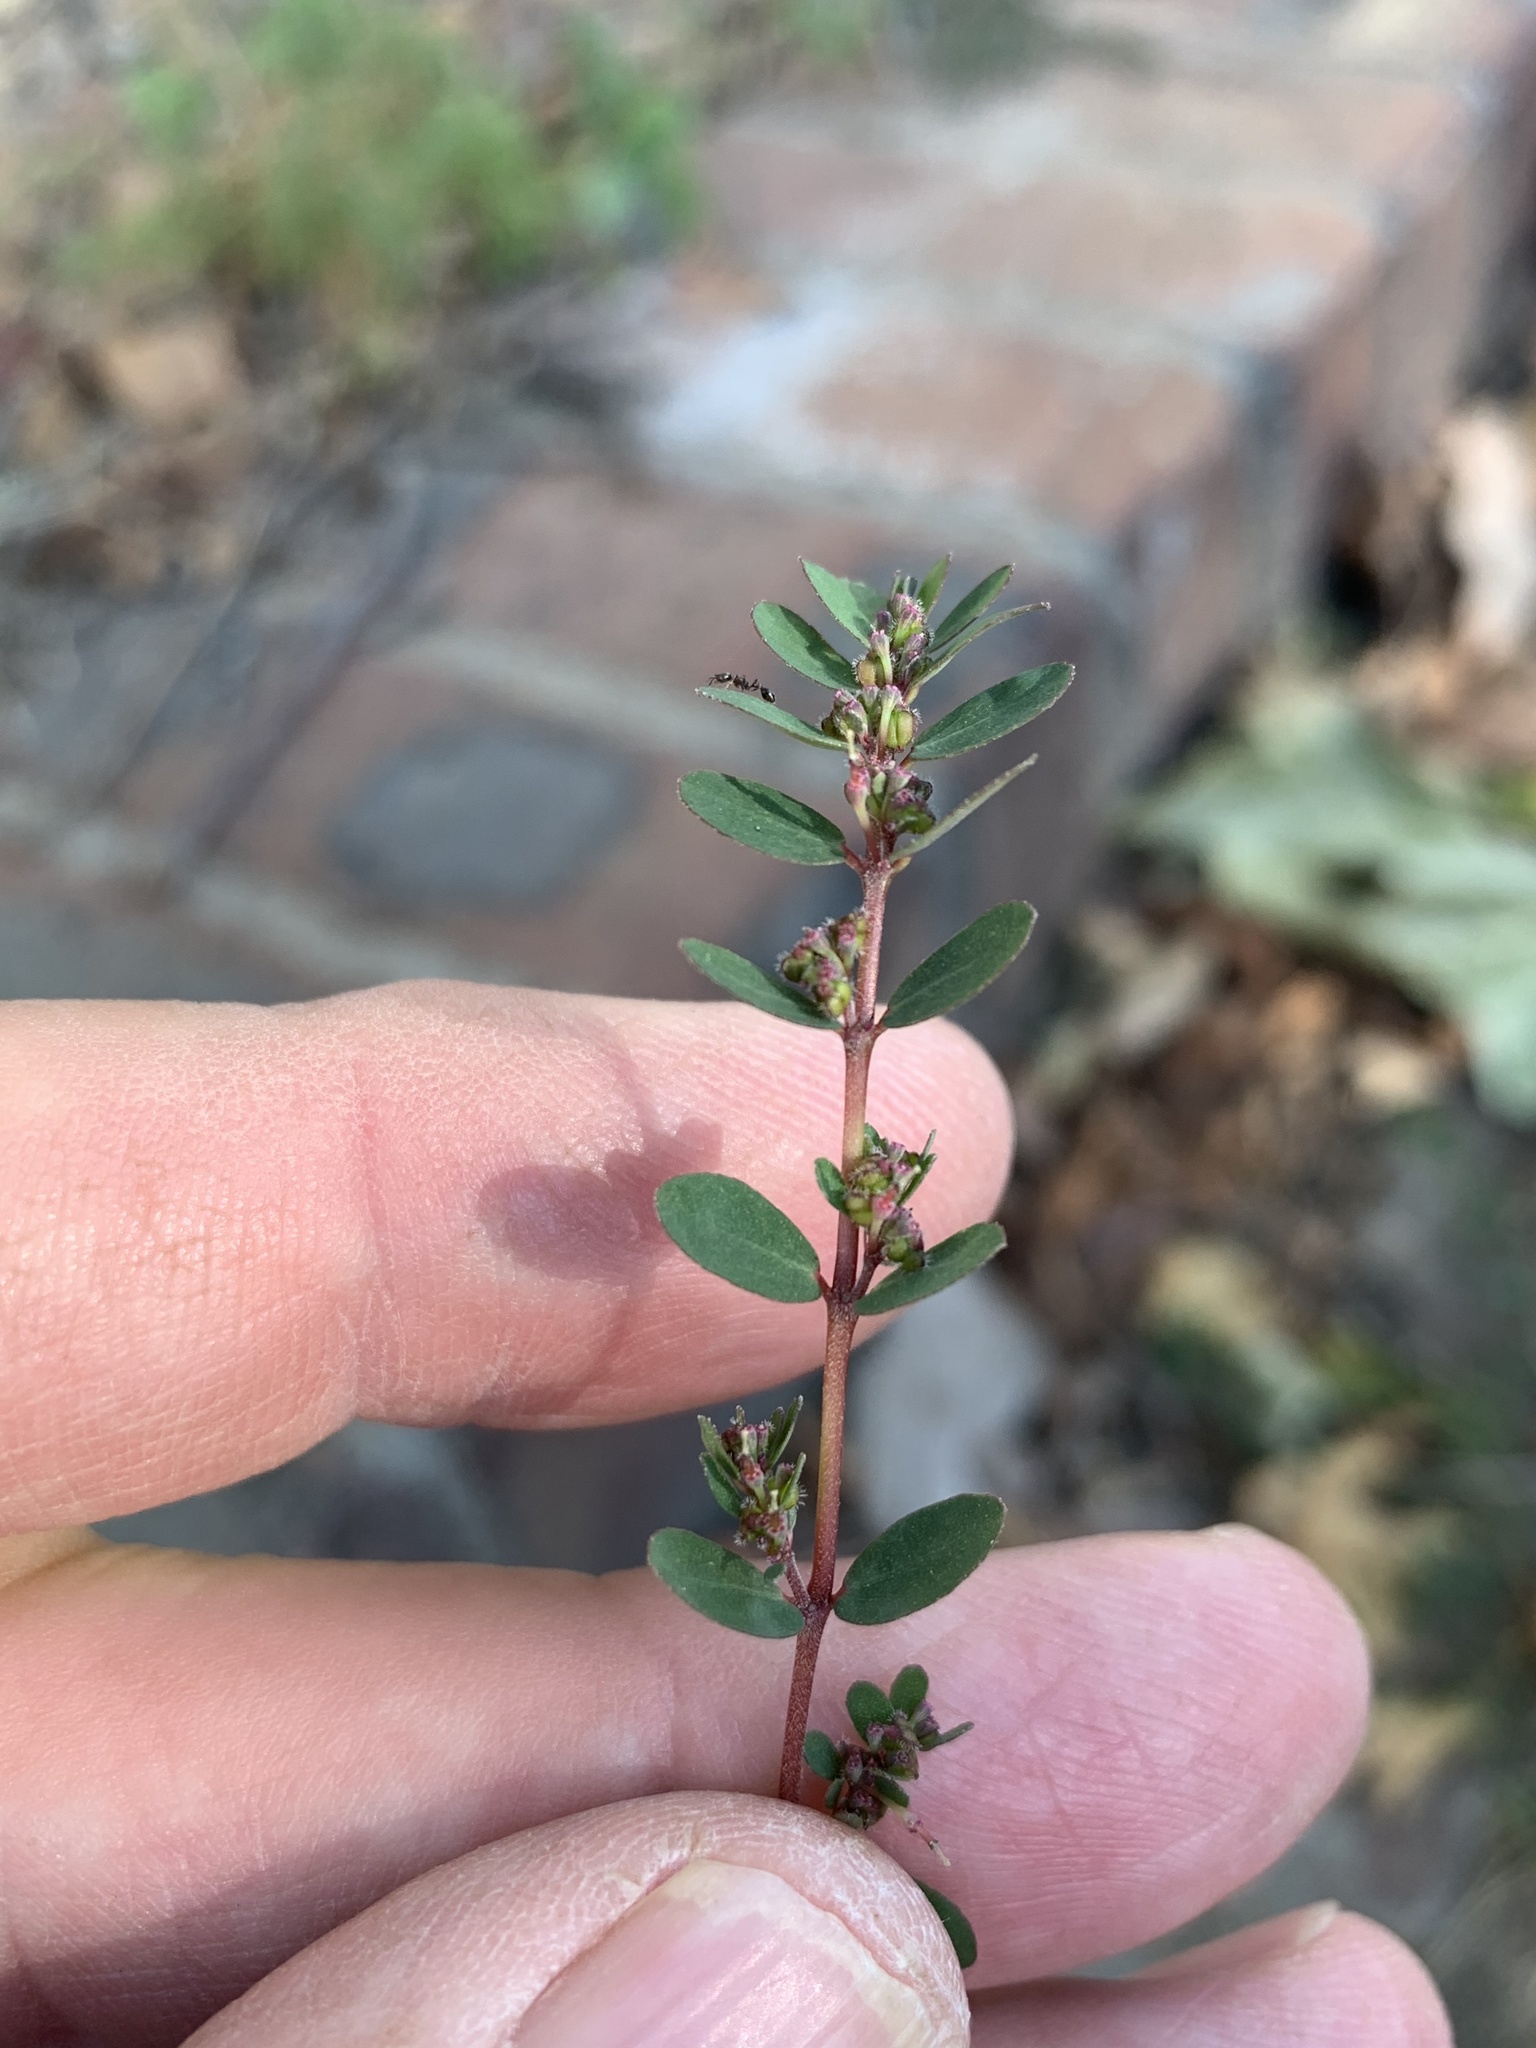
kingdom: Plantae
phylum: Tracheophyta
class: Magnoliopsida
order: Malpighiales
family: Euphorbiaceae
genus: Euphorbia
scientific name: Euphorbia prostrata
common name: Prostrate sandmat
